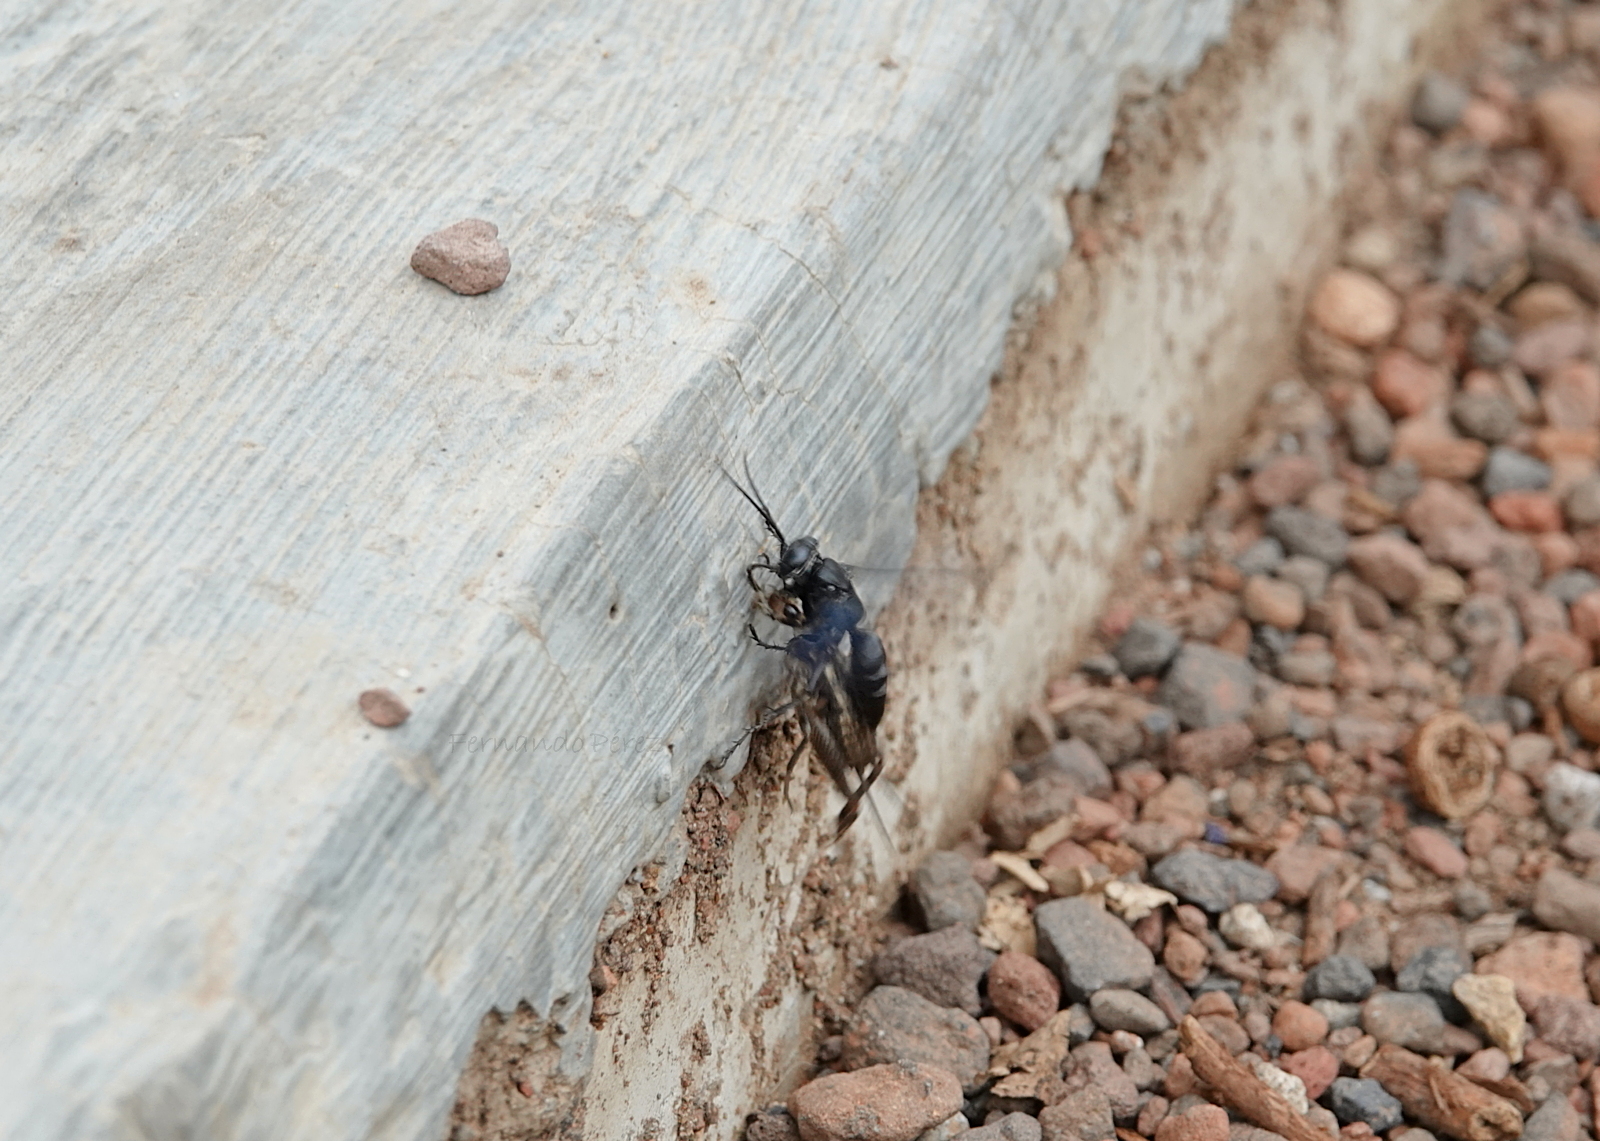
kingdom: Animalia
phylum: Arthropoda
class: Insecta
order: Hymenoptera
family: Crabronidae
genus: Liris
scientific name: Liris
